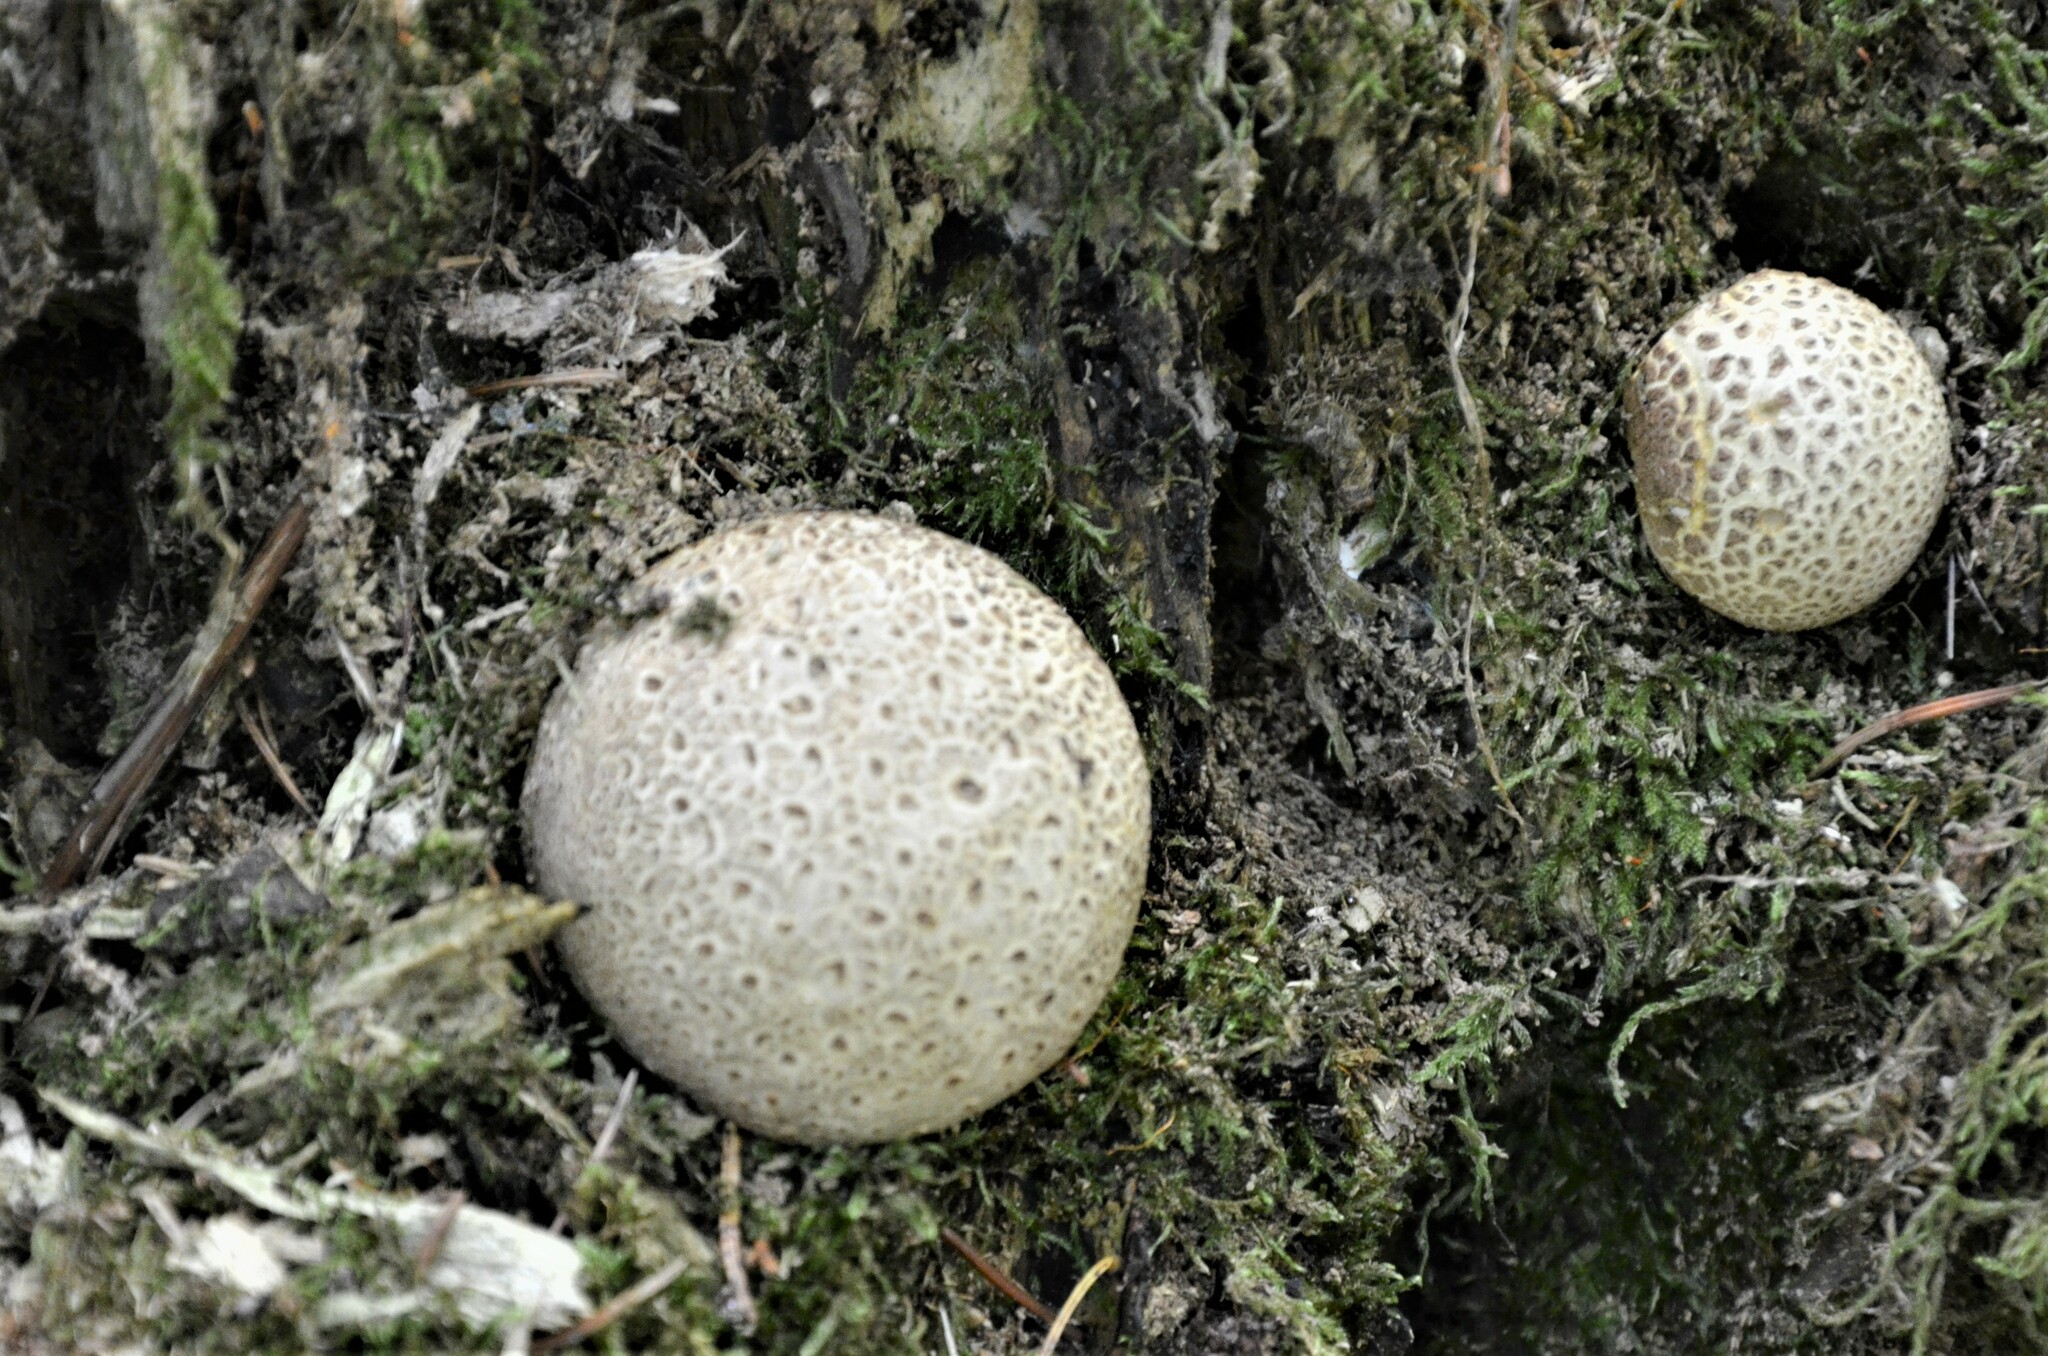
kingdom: Fungi
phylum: Basidiomycota
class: Agaricomycetes
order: Boletales
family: Sclerodermataceae
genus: Scleroderma
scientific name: Scleroderma citrinum
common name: Common earthball
